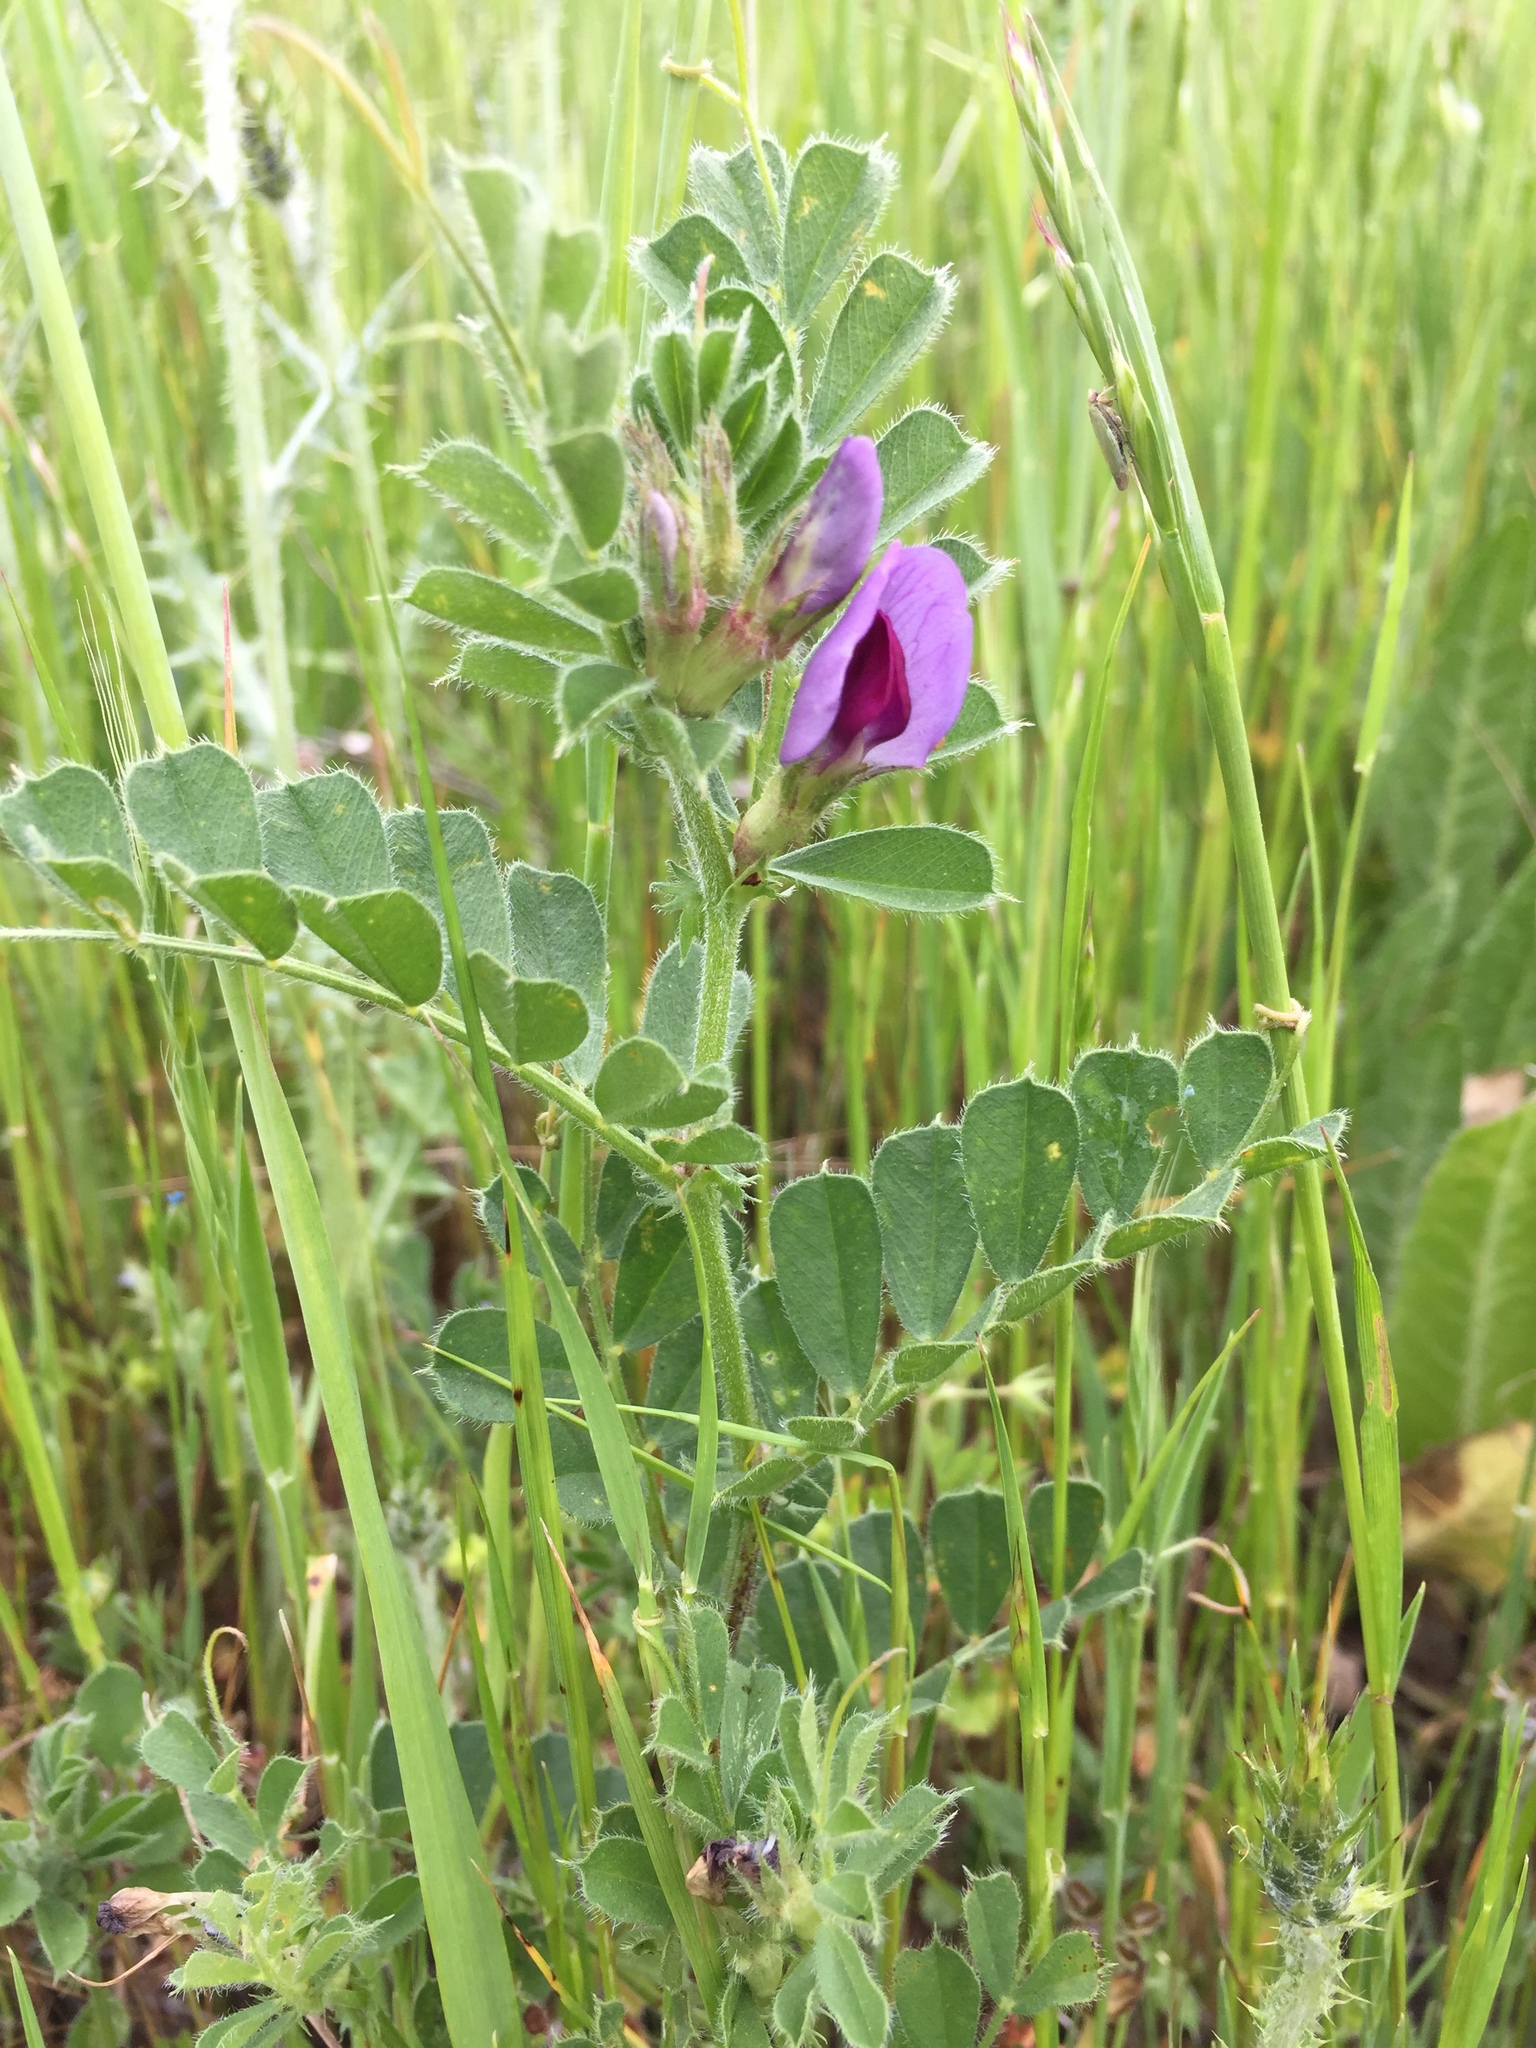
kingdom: Plantae
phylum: Tracheophyta
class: Magnoliopsida
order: Fabales
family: Fabaceae
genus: Vicia
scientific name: Vicia sativa
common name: Garden vetch
